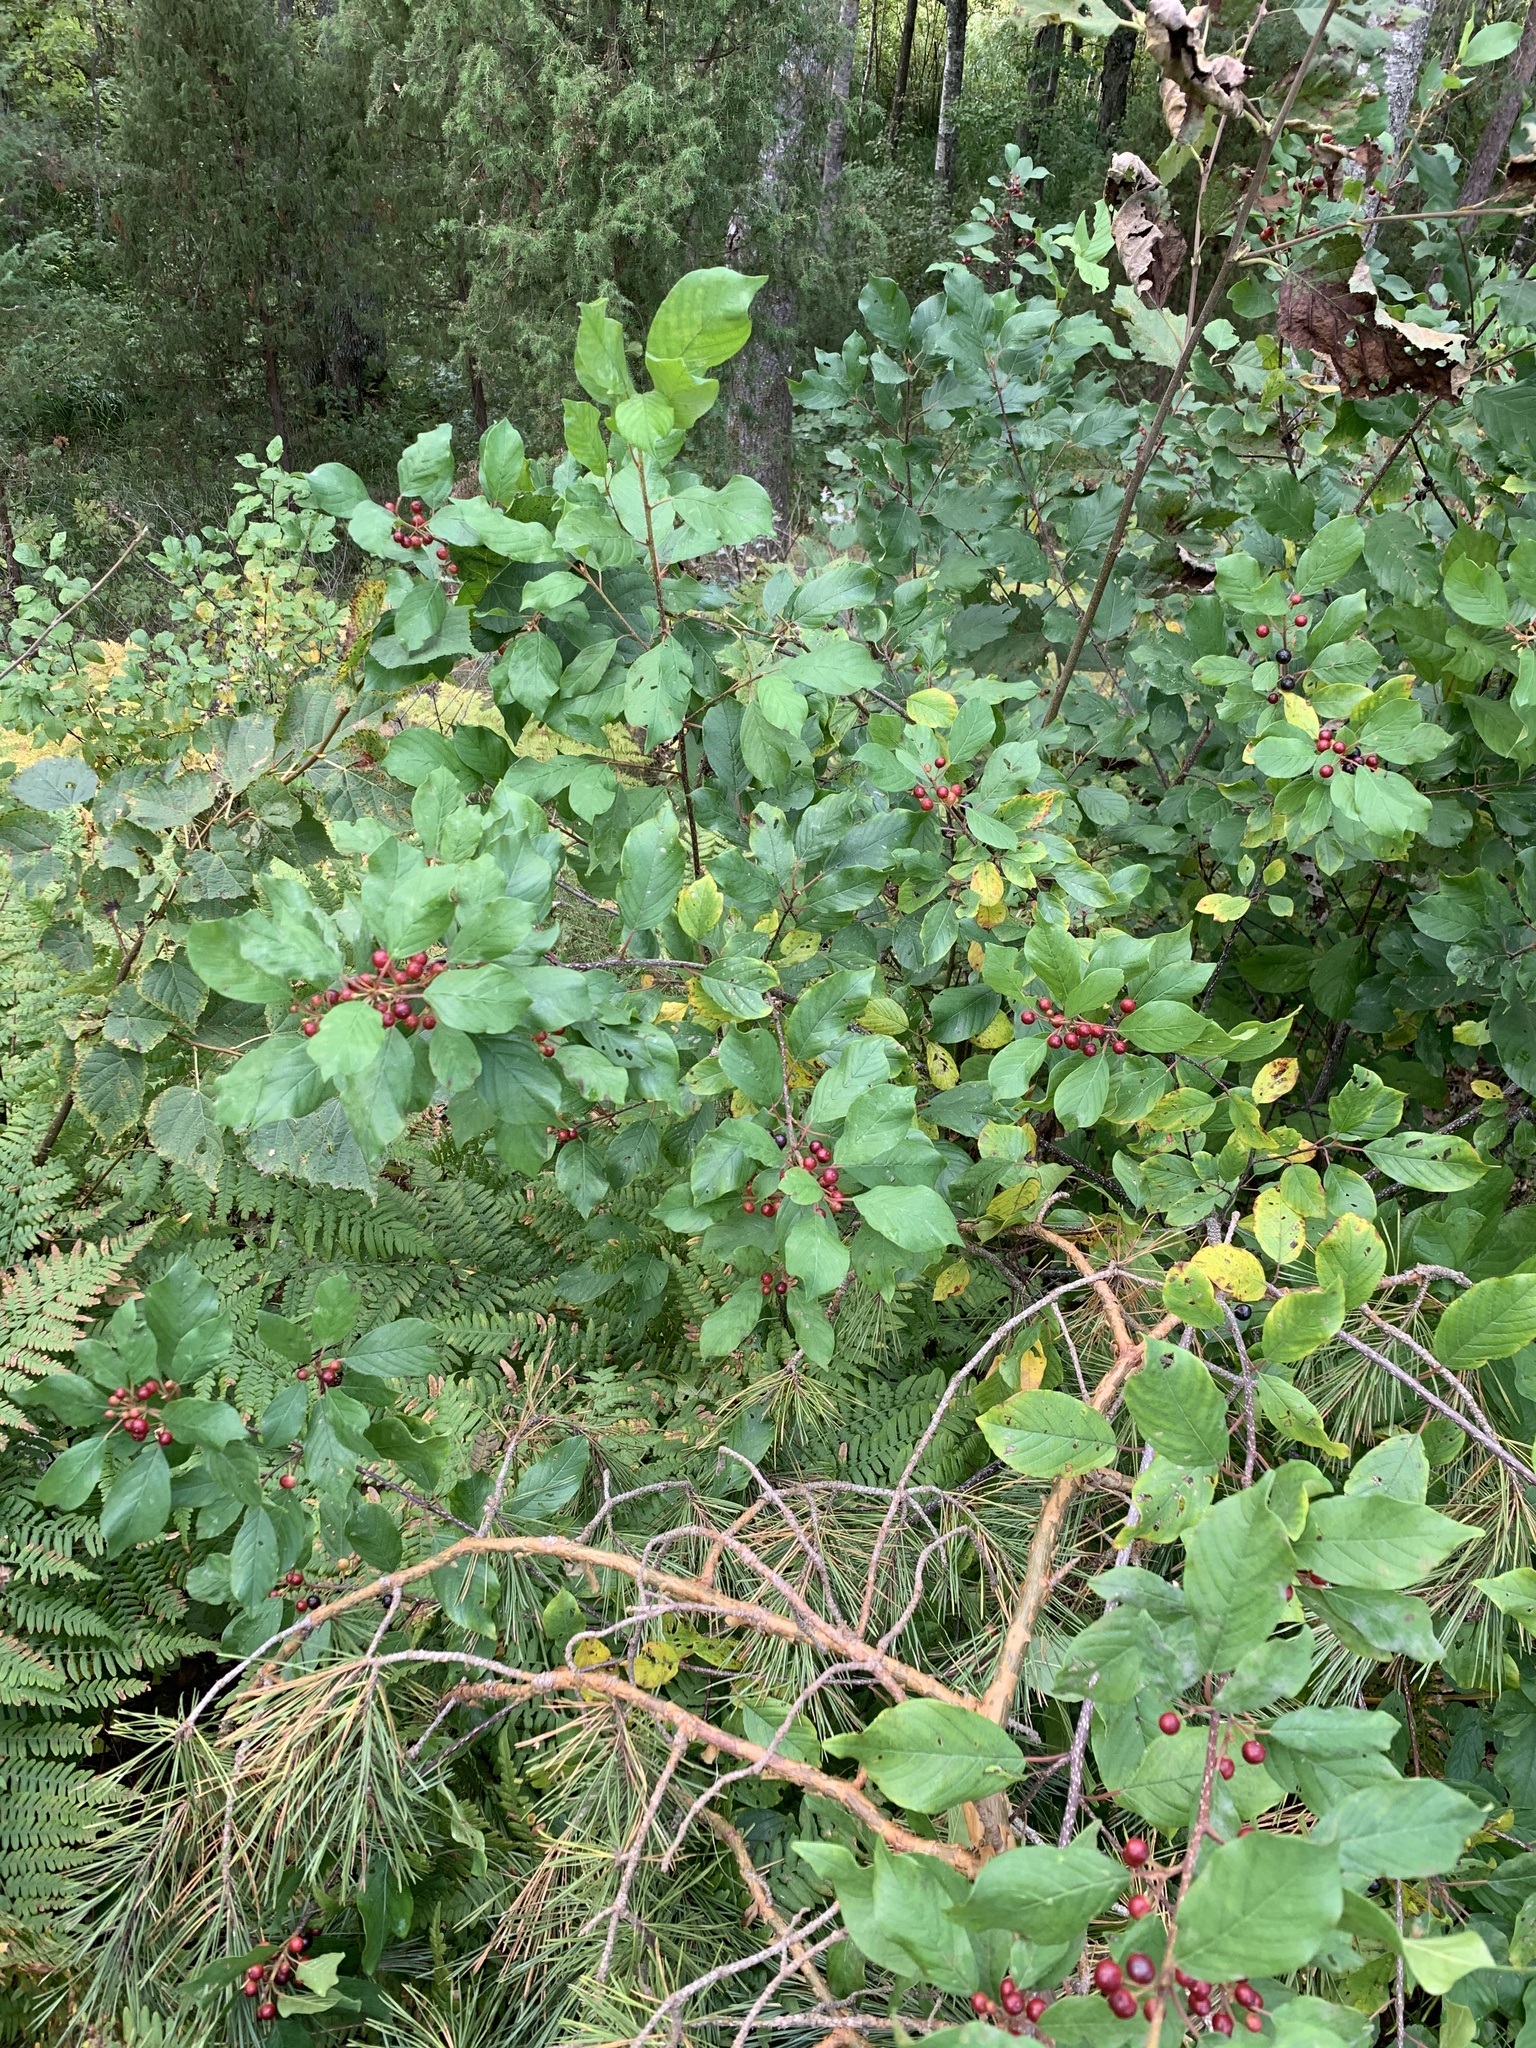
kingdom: Plantae
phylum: Tracheophyta
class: Magnoliopsida
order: Rosales
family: Rhamnaceae
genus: Frangula
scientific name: Frangula alnus
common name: Alder buckthorn
